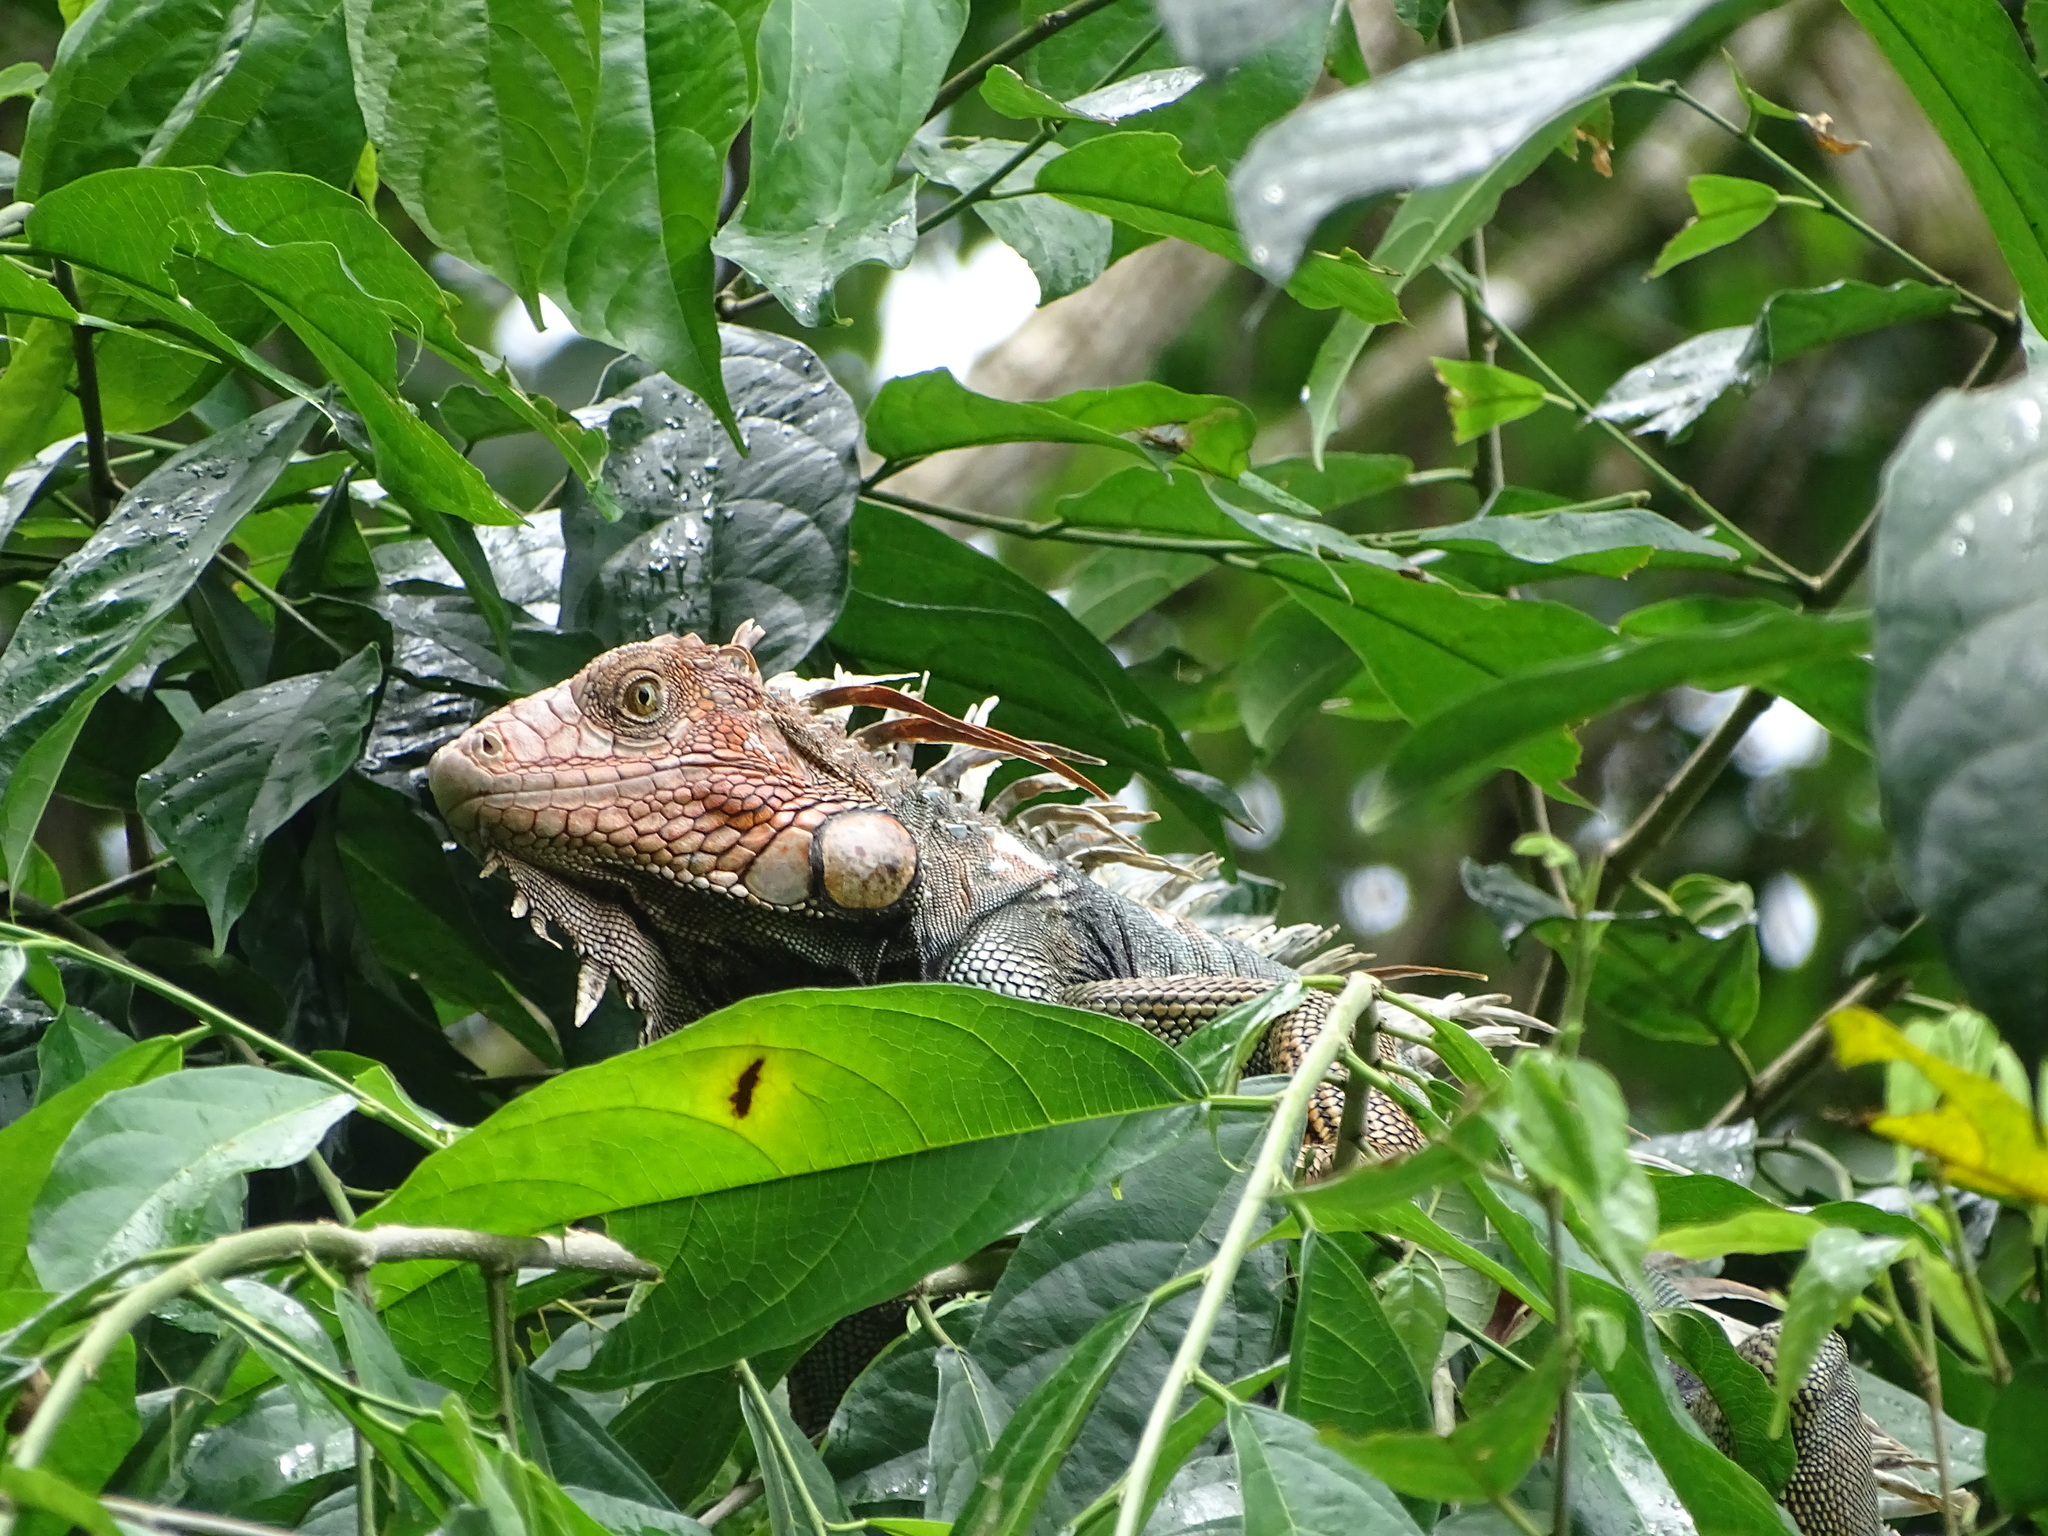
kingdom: Animalia
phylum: Chordata
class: Squamata
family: Iguanidae
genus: Iguana
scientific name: Iguana iguana
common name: Green iguana
